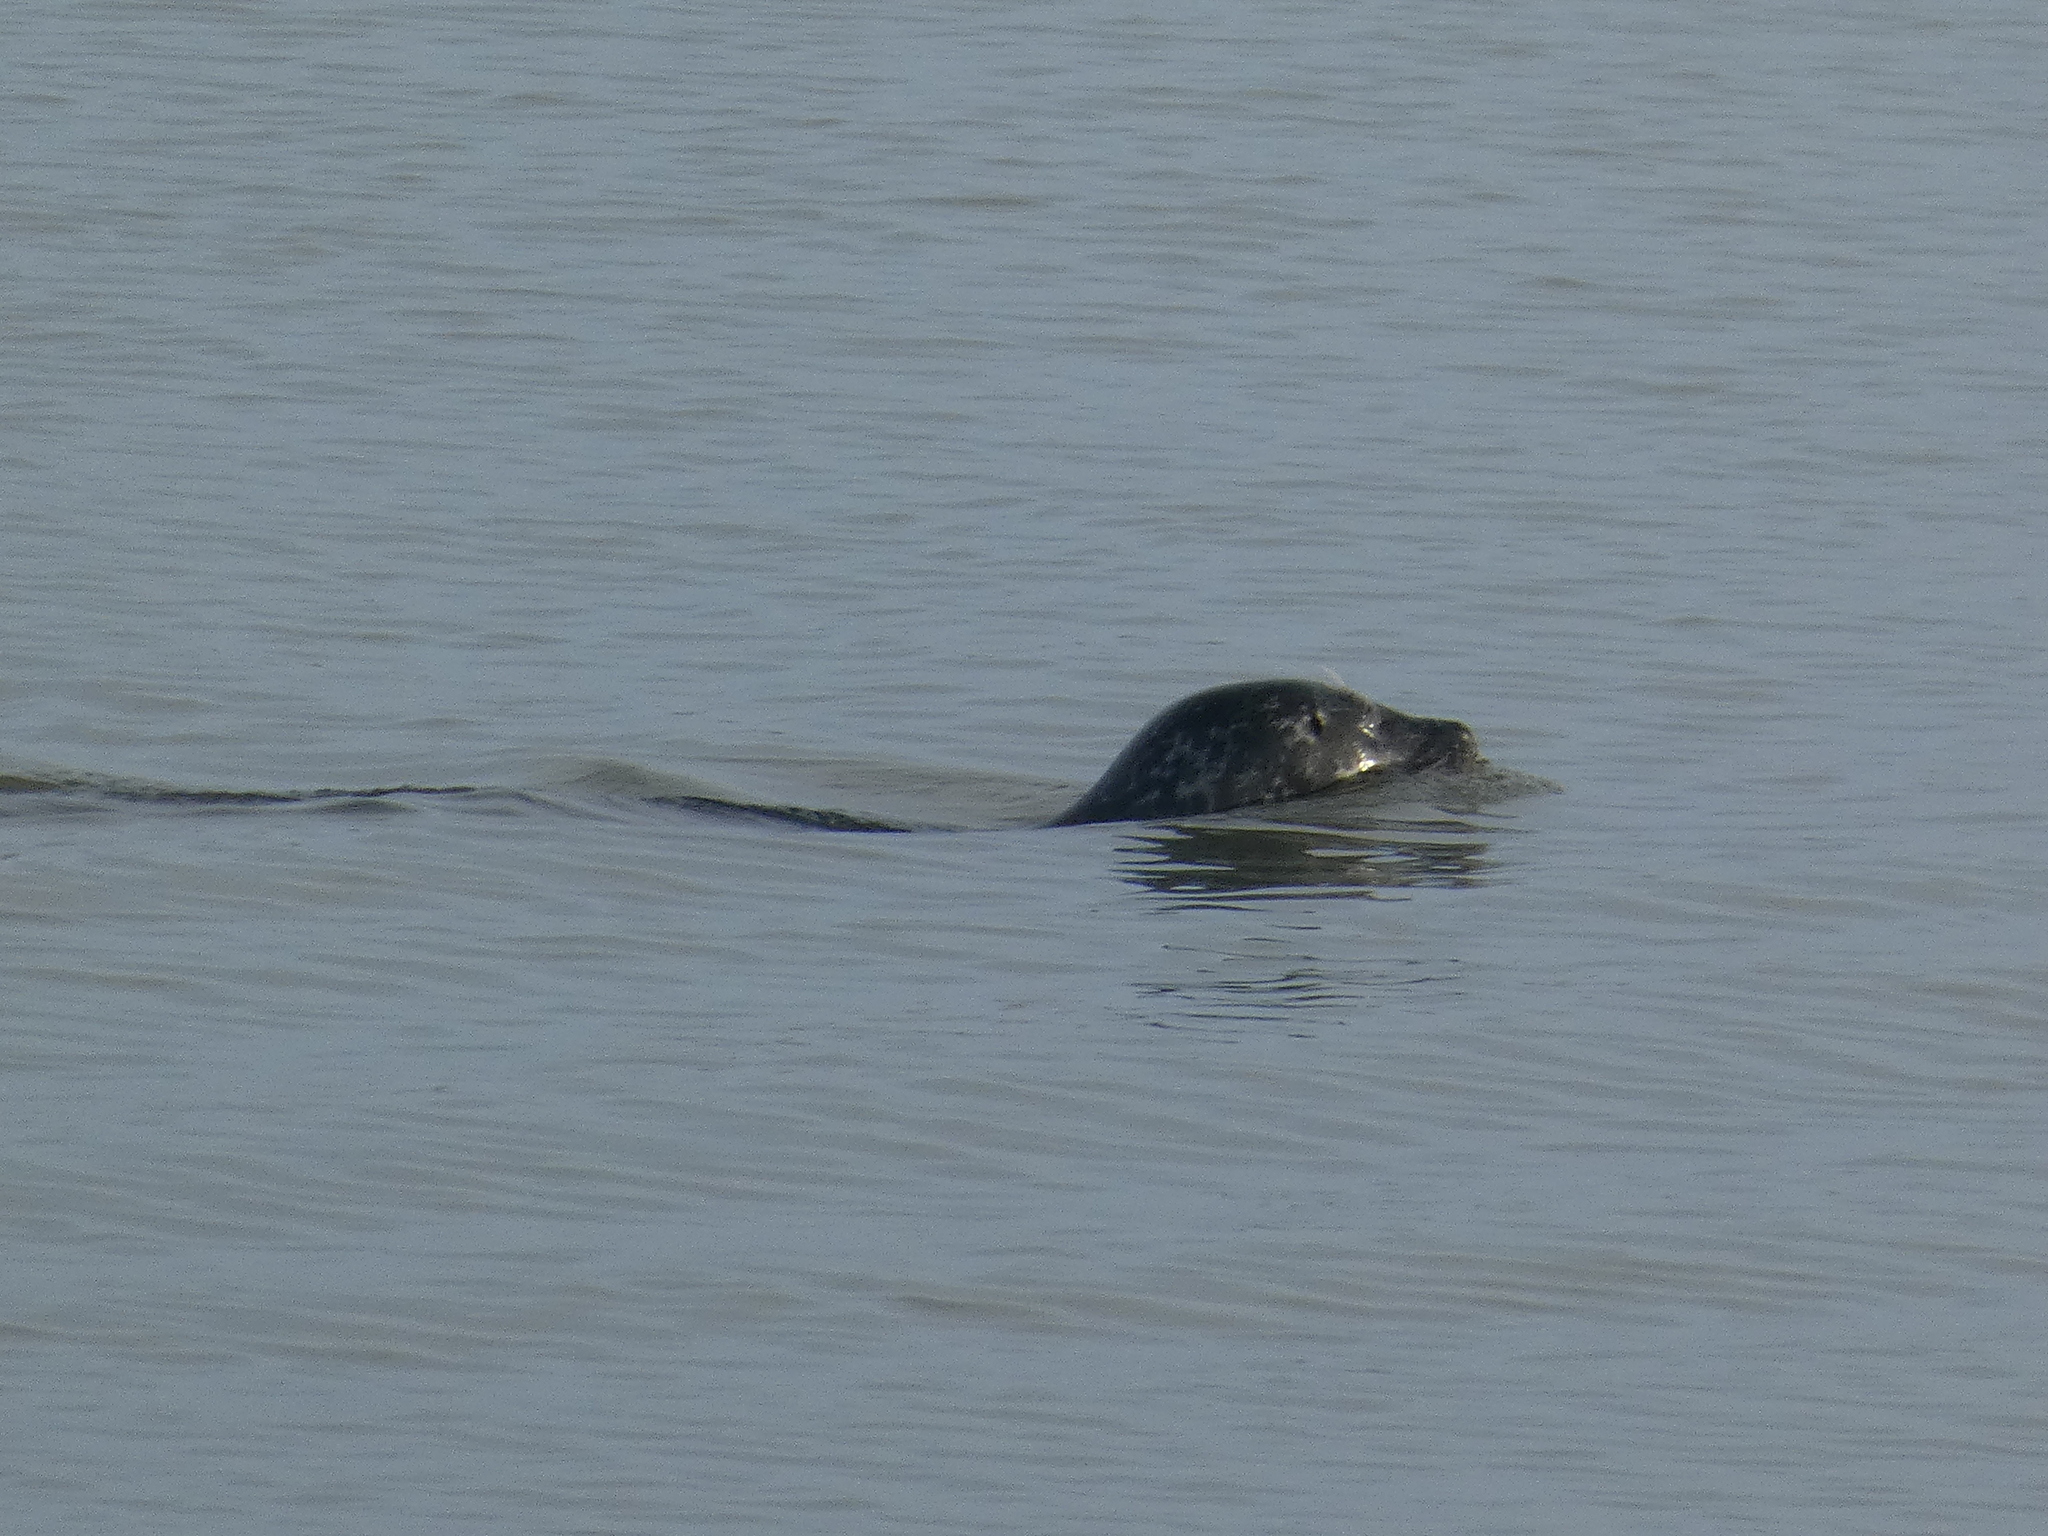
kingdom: Animalia
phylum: Chordata
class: Mammalia
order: Carnivora
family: Phocidae
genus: Phoca
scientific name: Phoca vitulina
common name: Harbor seal
